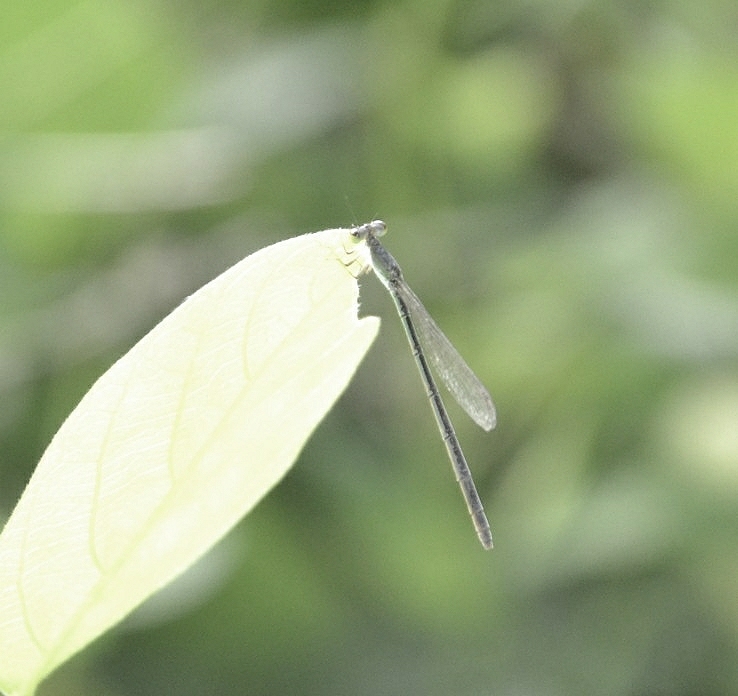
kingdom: Animalia
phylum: Arthropoda
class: Insecta
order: Odonata
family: Coenagrionidae
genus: Agriocnemis
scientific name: Agriocnemis pygmaea
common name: Pygmy wisp
